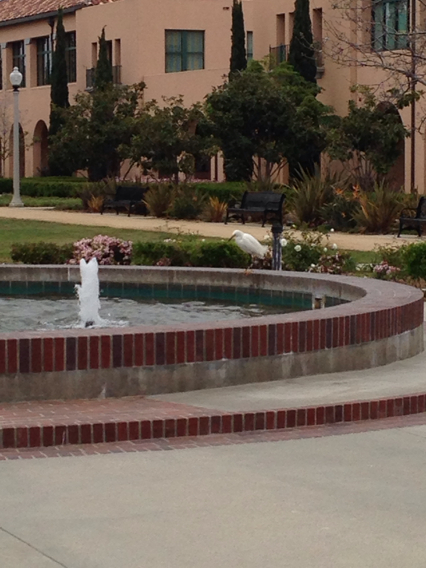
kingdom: Animalia
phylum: Chordata
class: Aves
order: Pelecaniformes
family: Ardeidae
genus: Egretta
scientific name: Egretta thula
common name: Snowy egret
